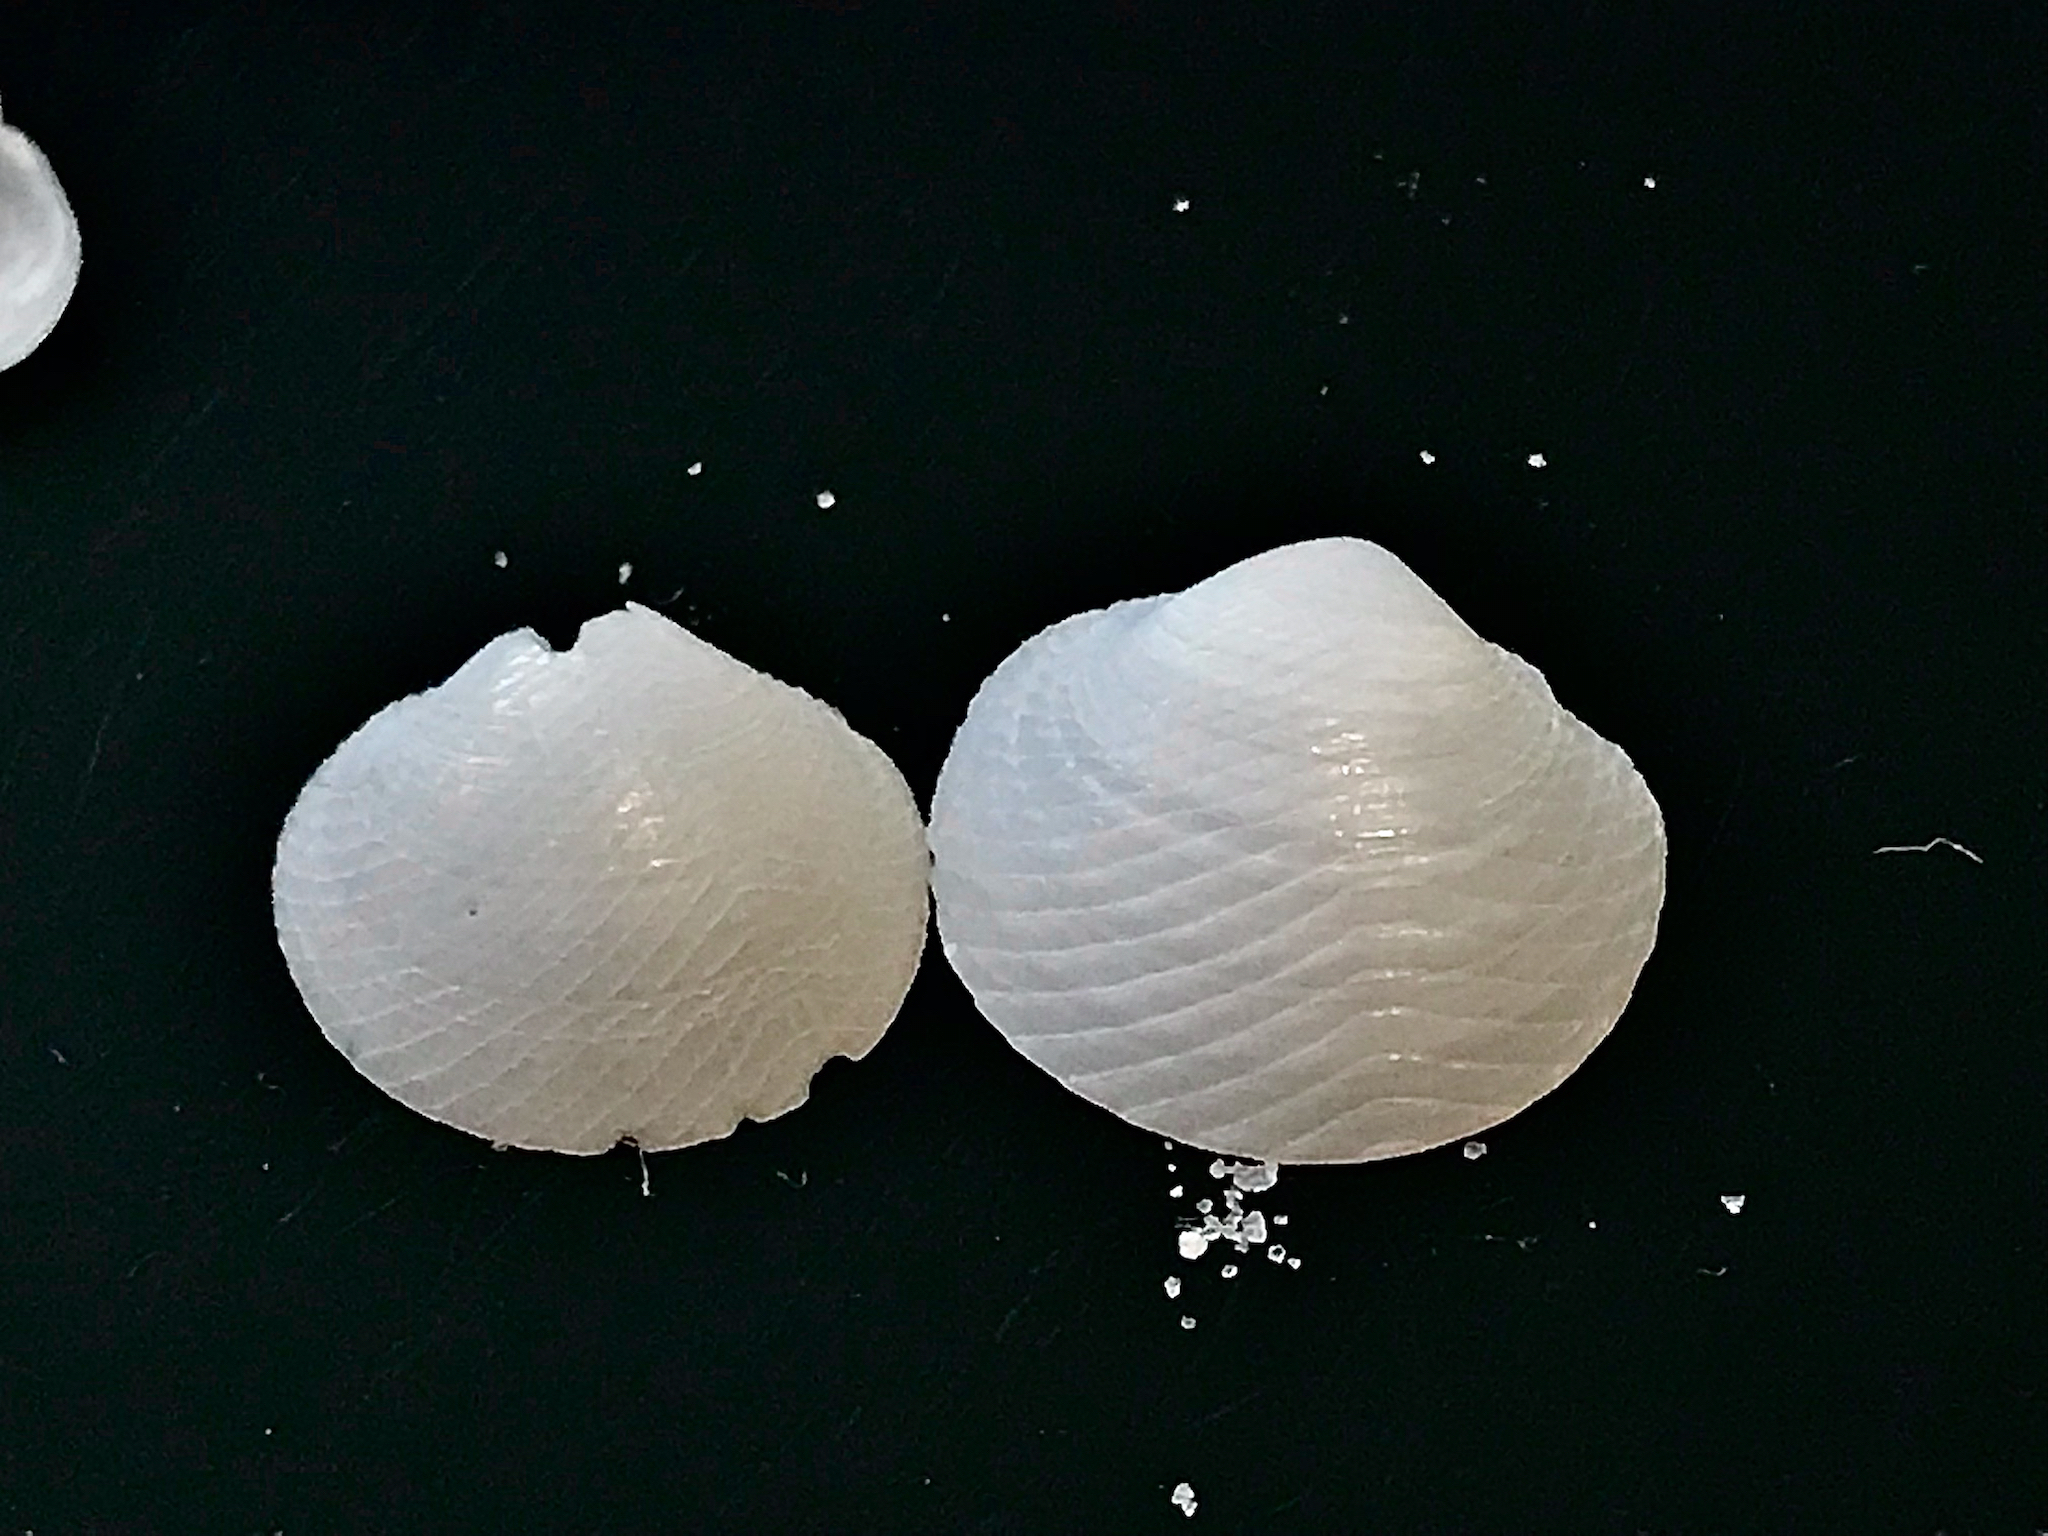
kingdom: Animalia
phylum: Mollusca
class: Bivalvia
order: Lucinida
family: Lucinidae
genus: Divalinga
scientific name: Divalinga quadrisulcata
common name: Cross-hatched lucine
